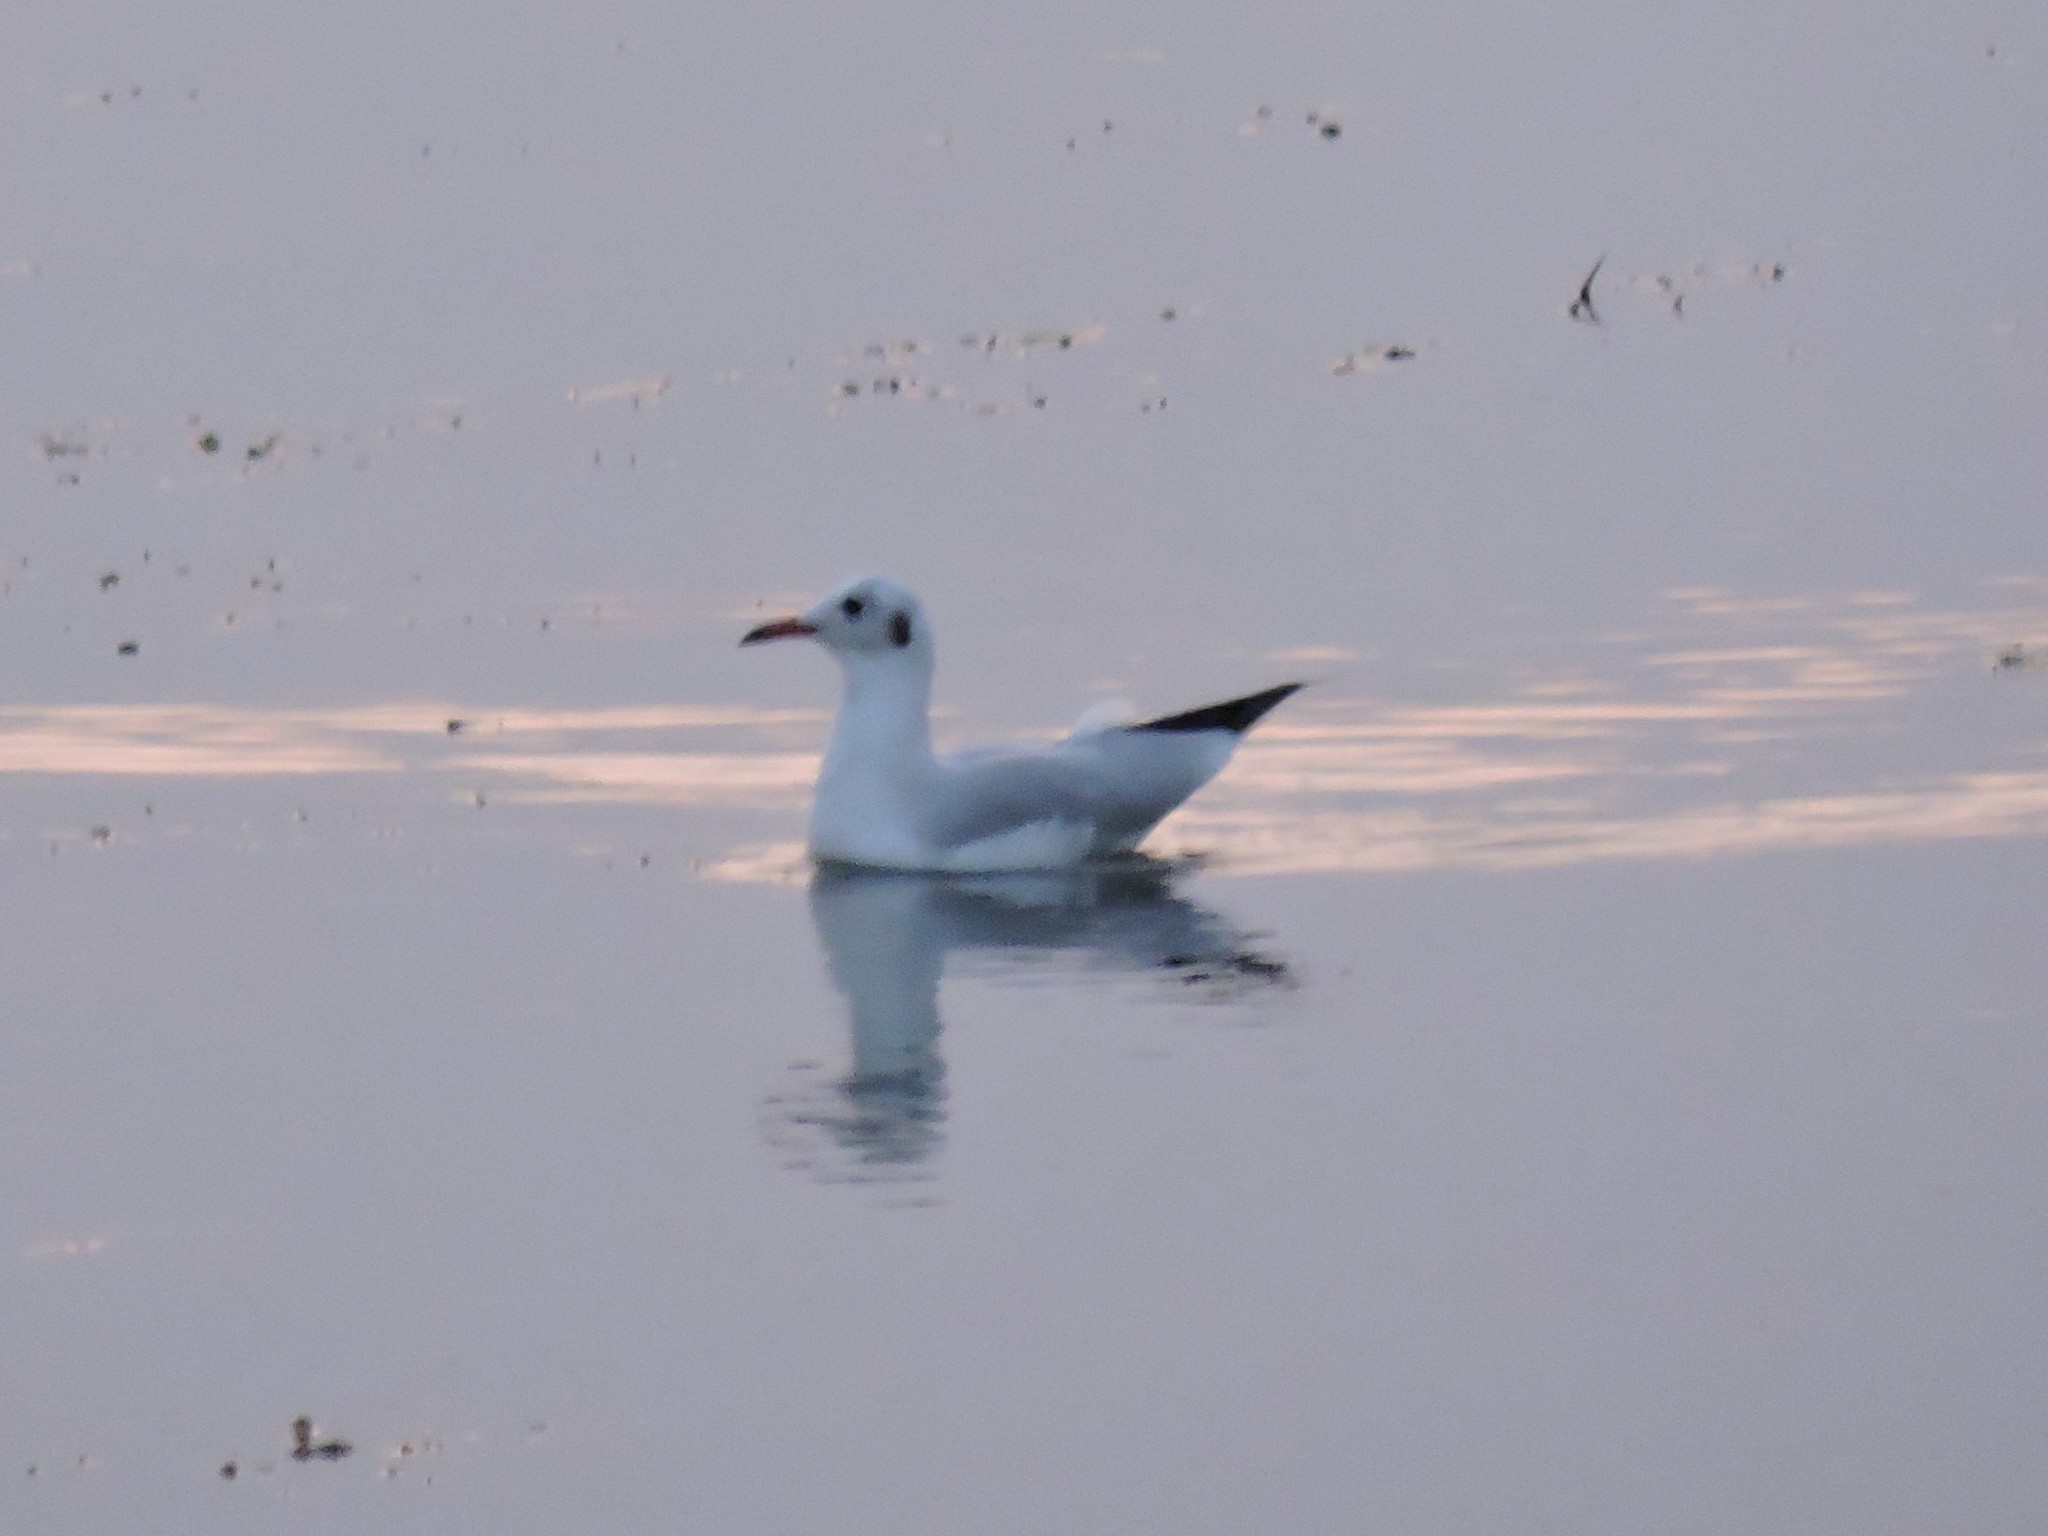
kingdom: Animalia
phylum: Chordata
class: Aves
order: Charadriiformes
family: Laridae
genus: Chroicocephalus
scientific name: Chroicocephalus ridibundus
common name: Black-headed gull
